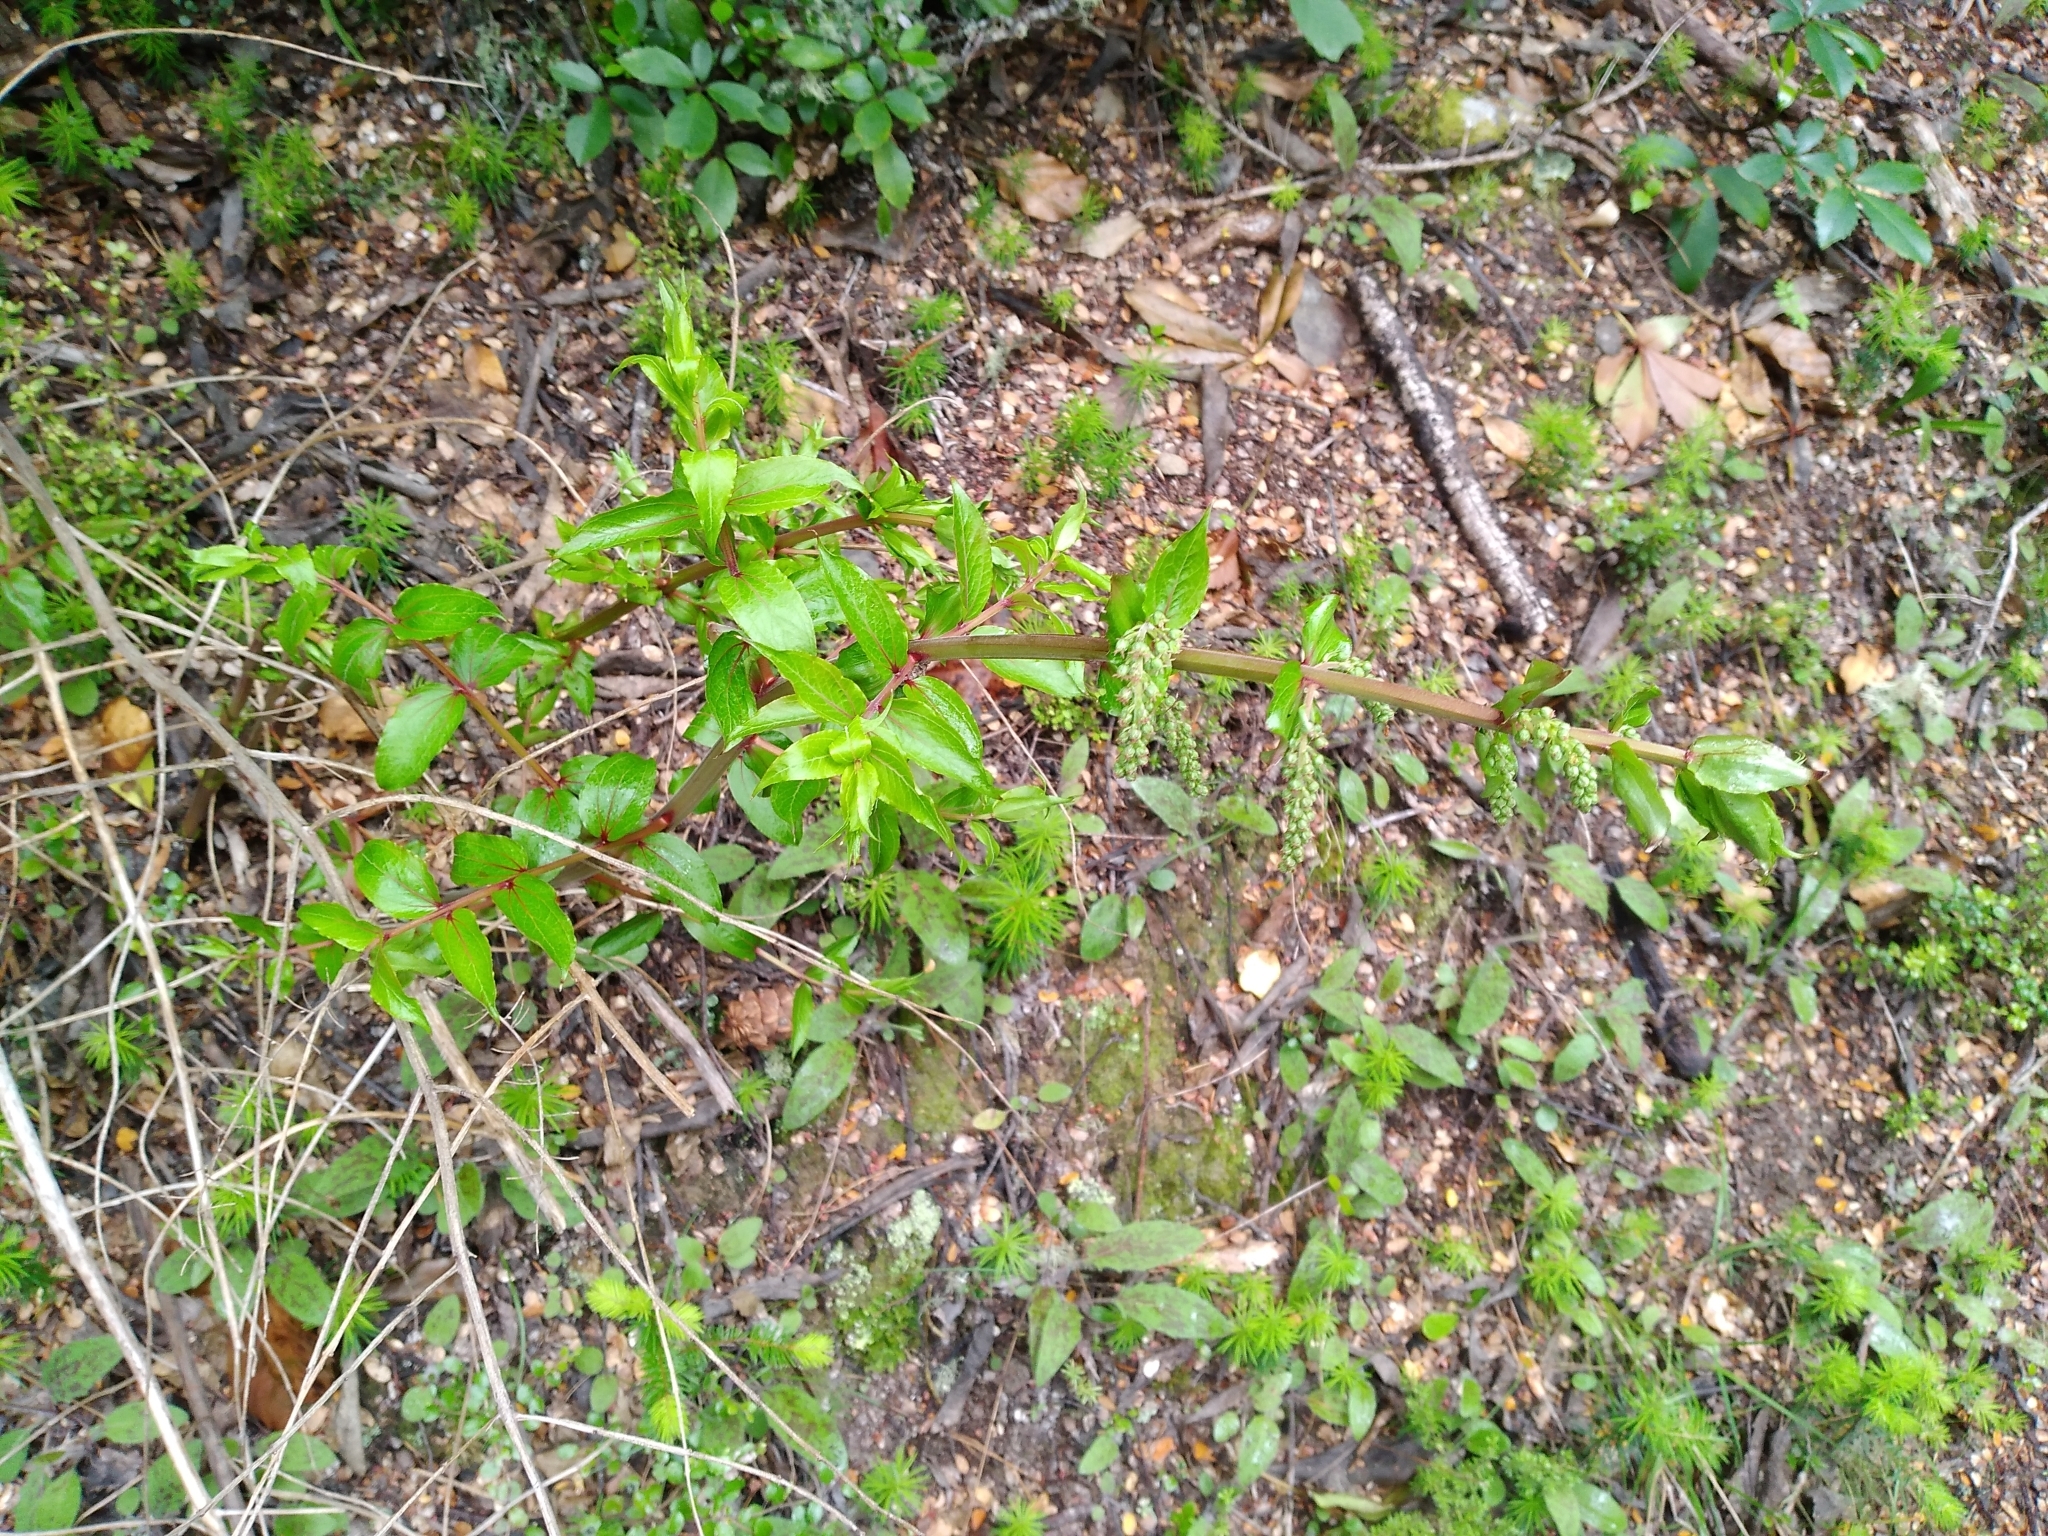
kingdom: Plantae
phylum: Tracheophyta
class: Magnoliopsida
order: Cucurbitales
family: Coriariaceae
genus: Coriaria
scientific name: Coriaria sarmentosa
